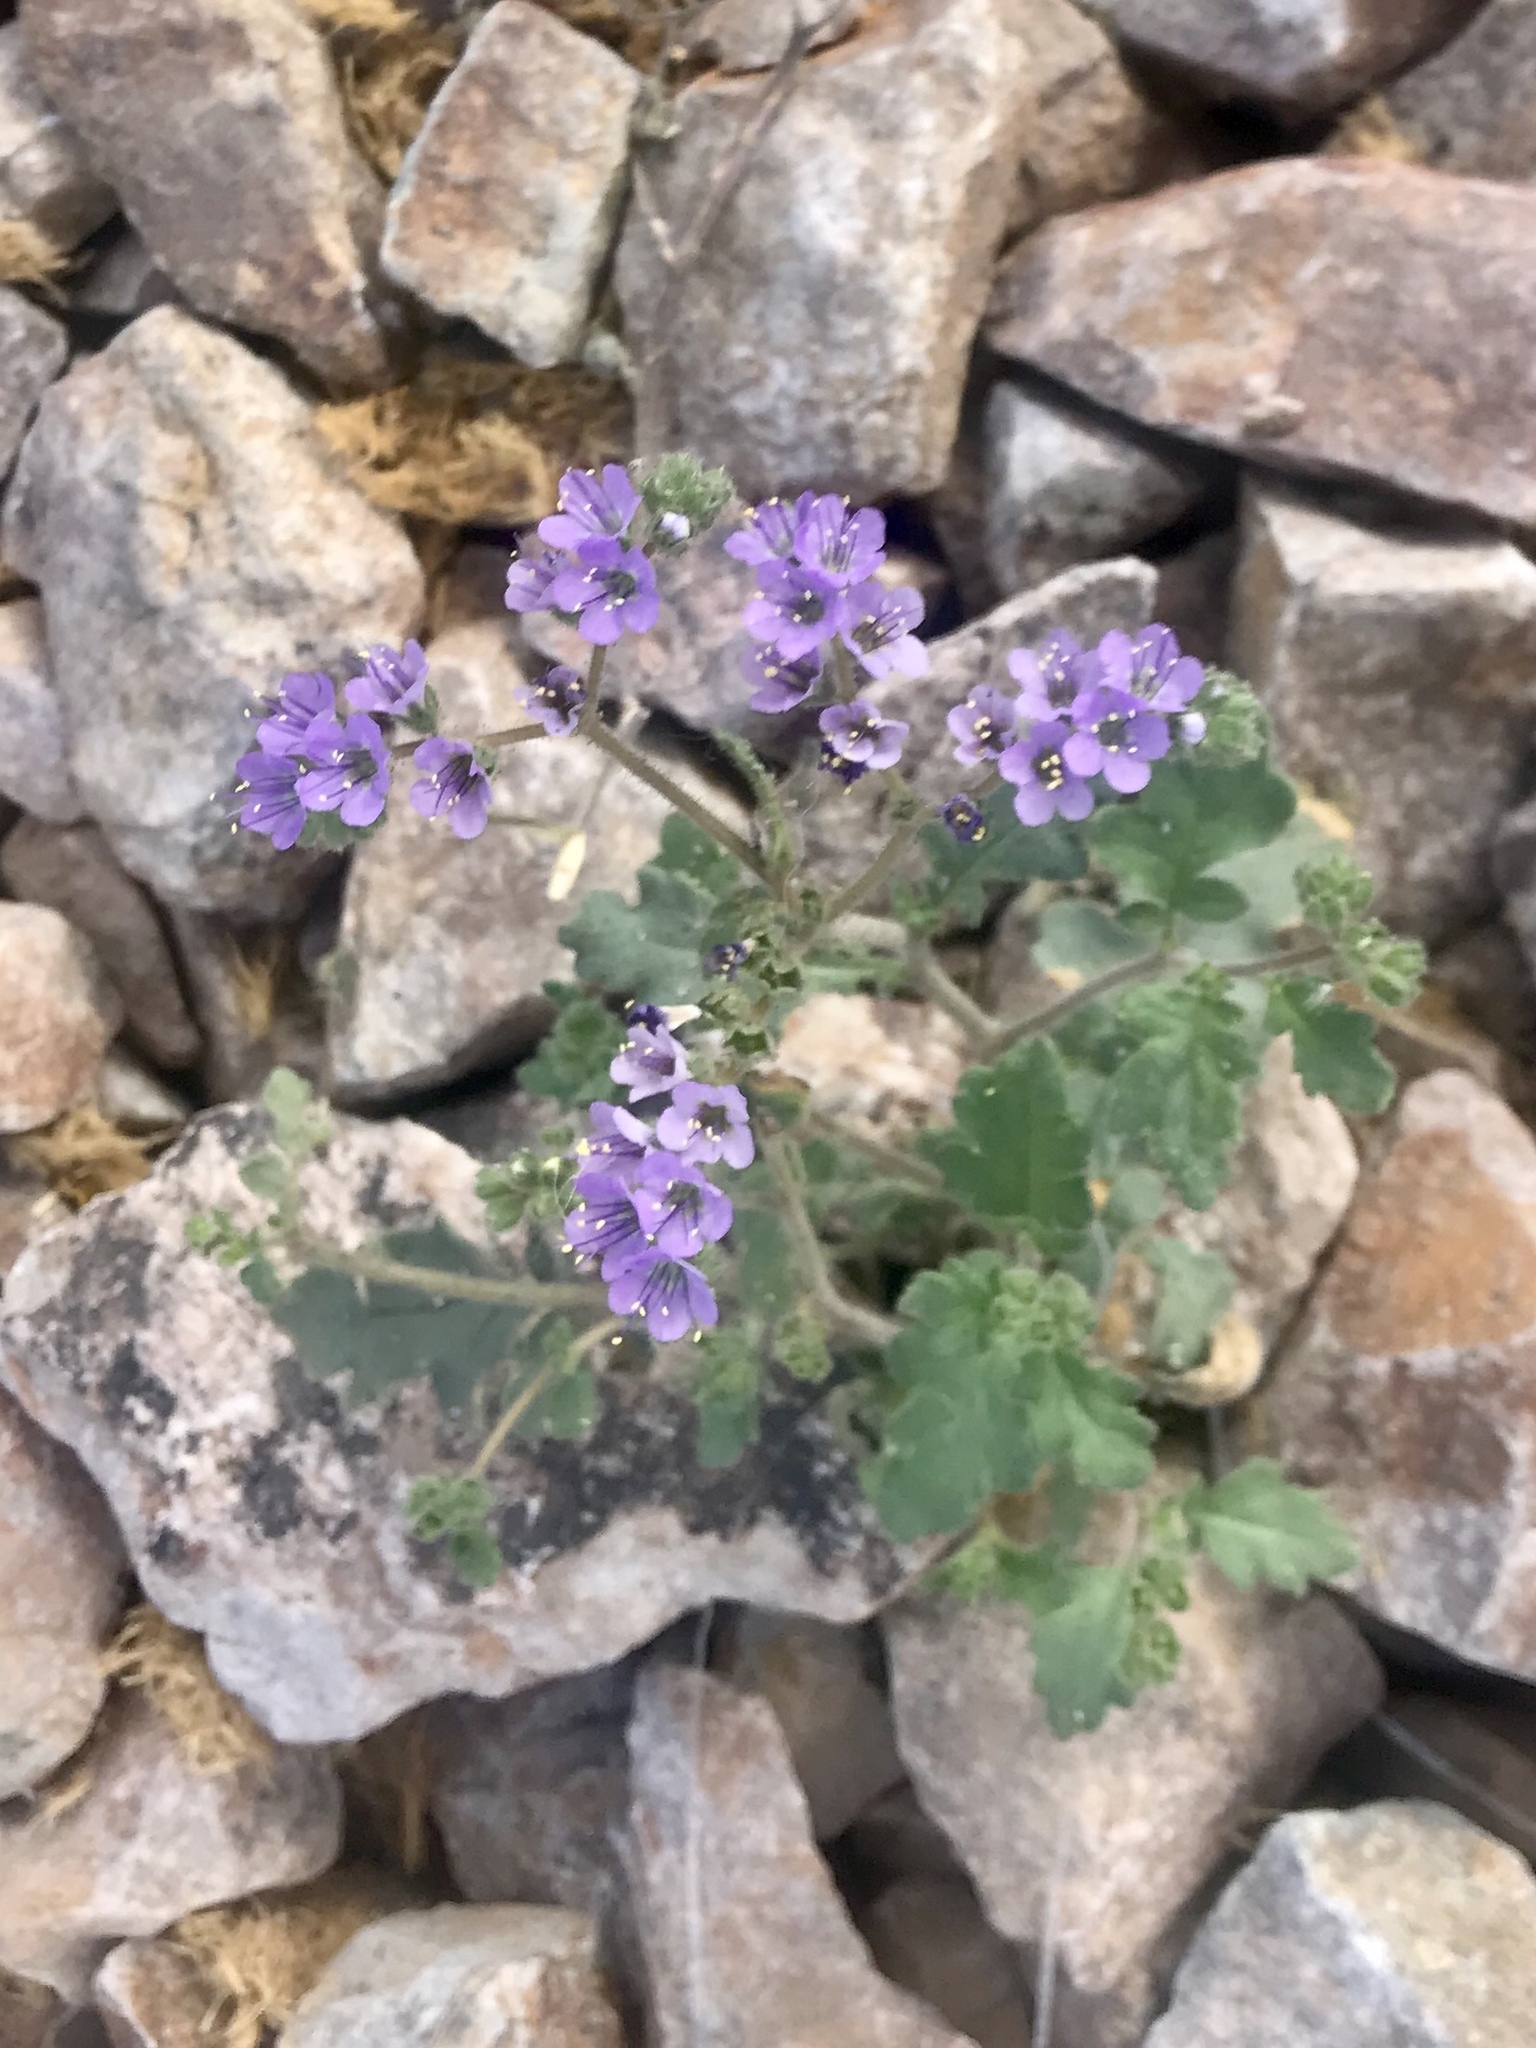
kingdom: Plantae
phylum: Tracheophyta
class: Magnoliopsida
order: Boraginales
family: Hydrophyllaceae
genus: Phacelia
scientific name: Phacelia crenulata
